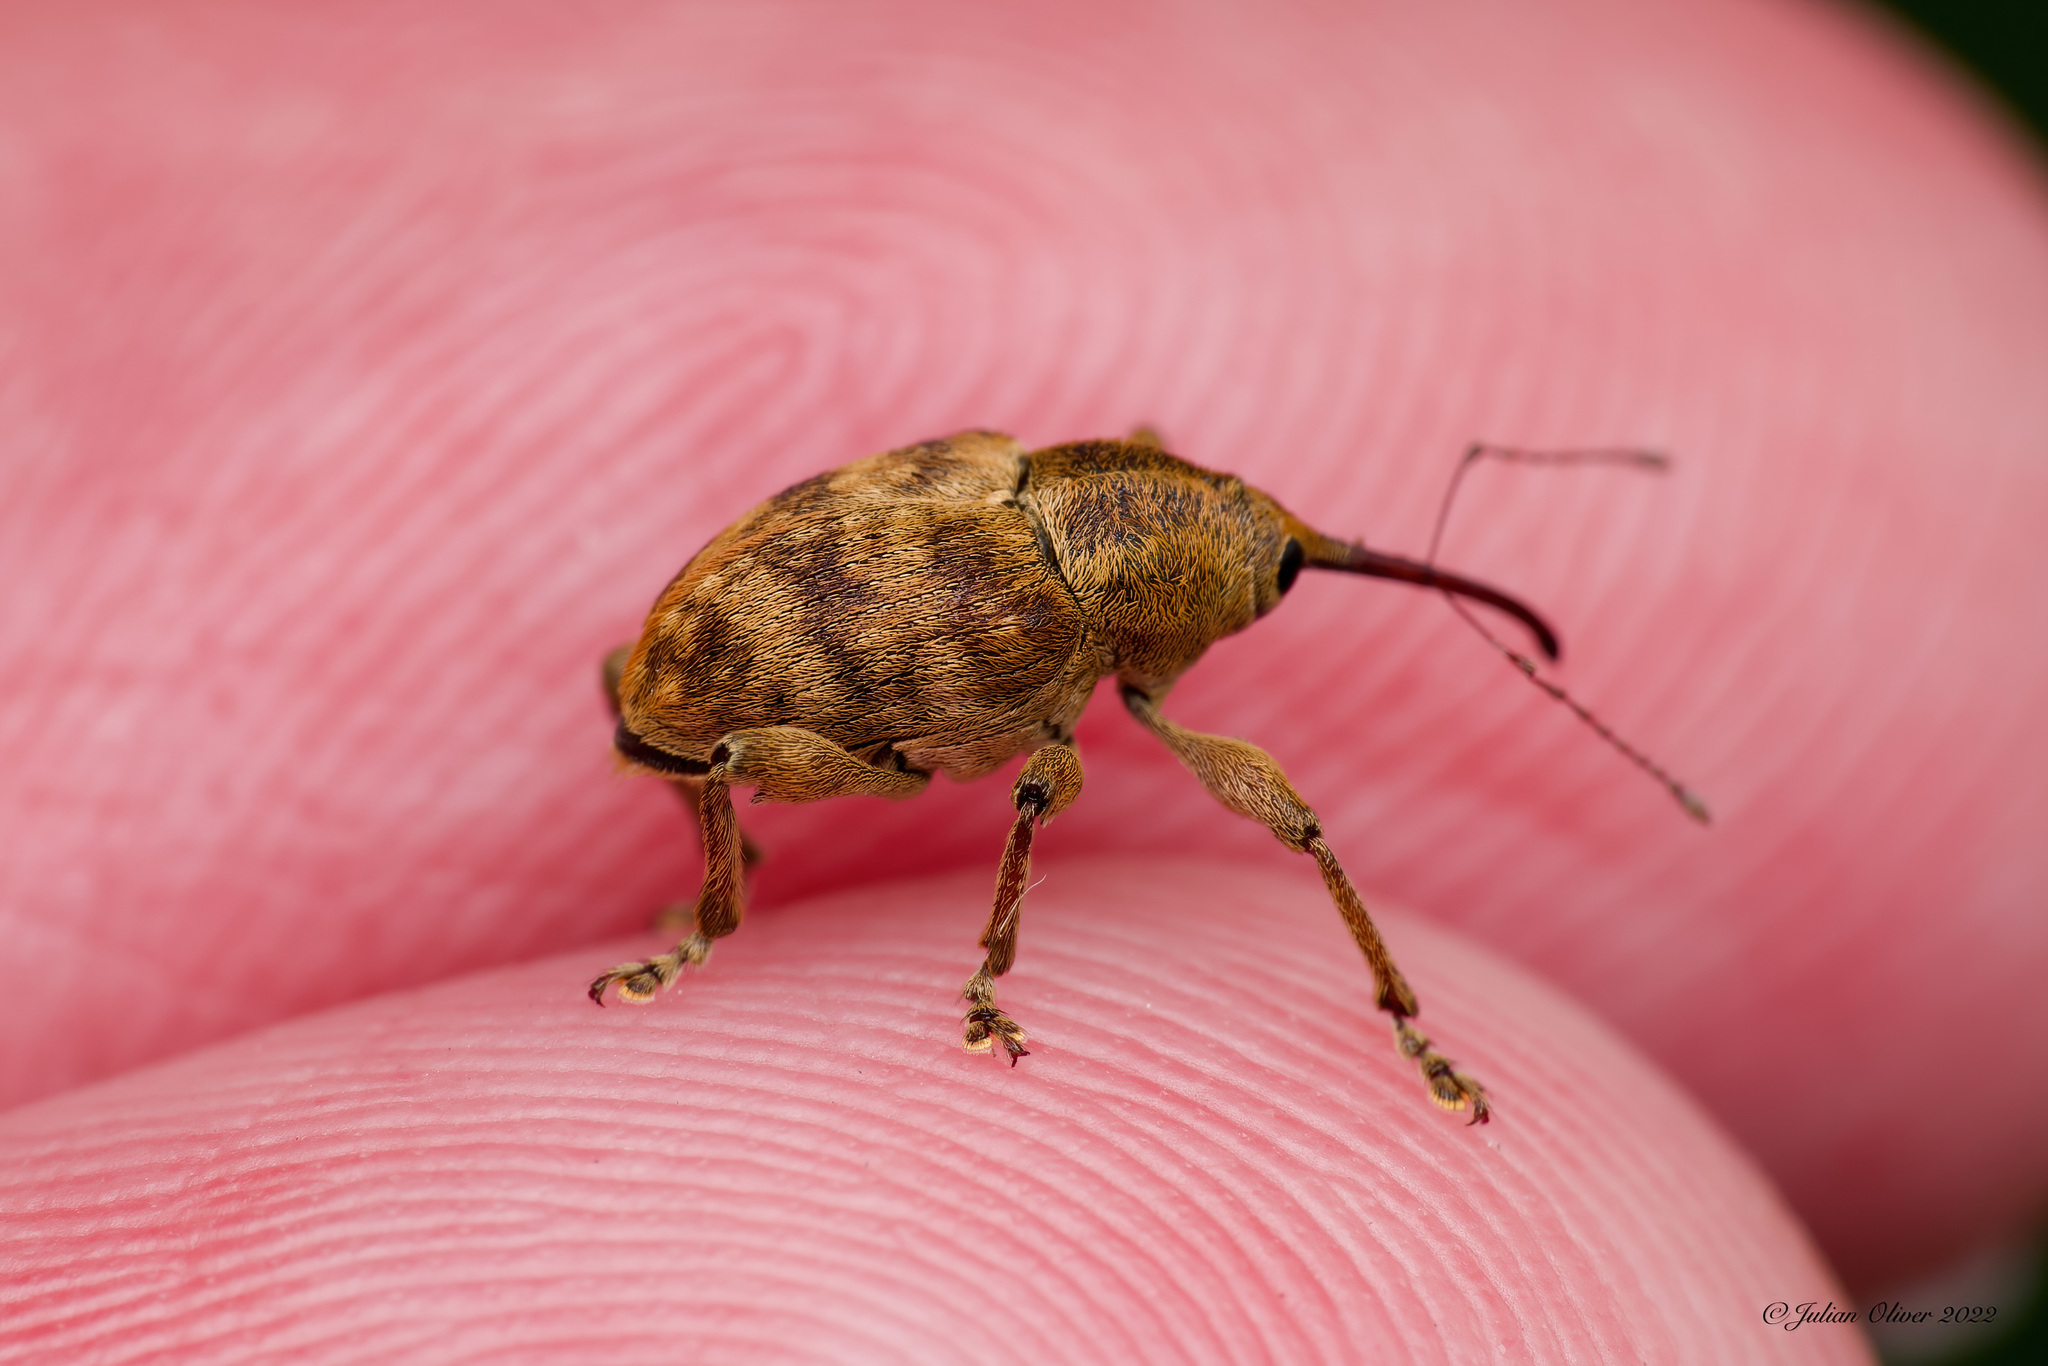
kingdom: Animalia
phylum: Arthropoda
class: Insecta
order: Coleoptera
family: Curculionidae
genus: Curculio
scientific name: Curculio venosus
